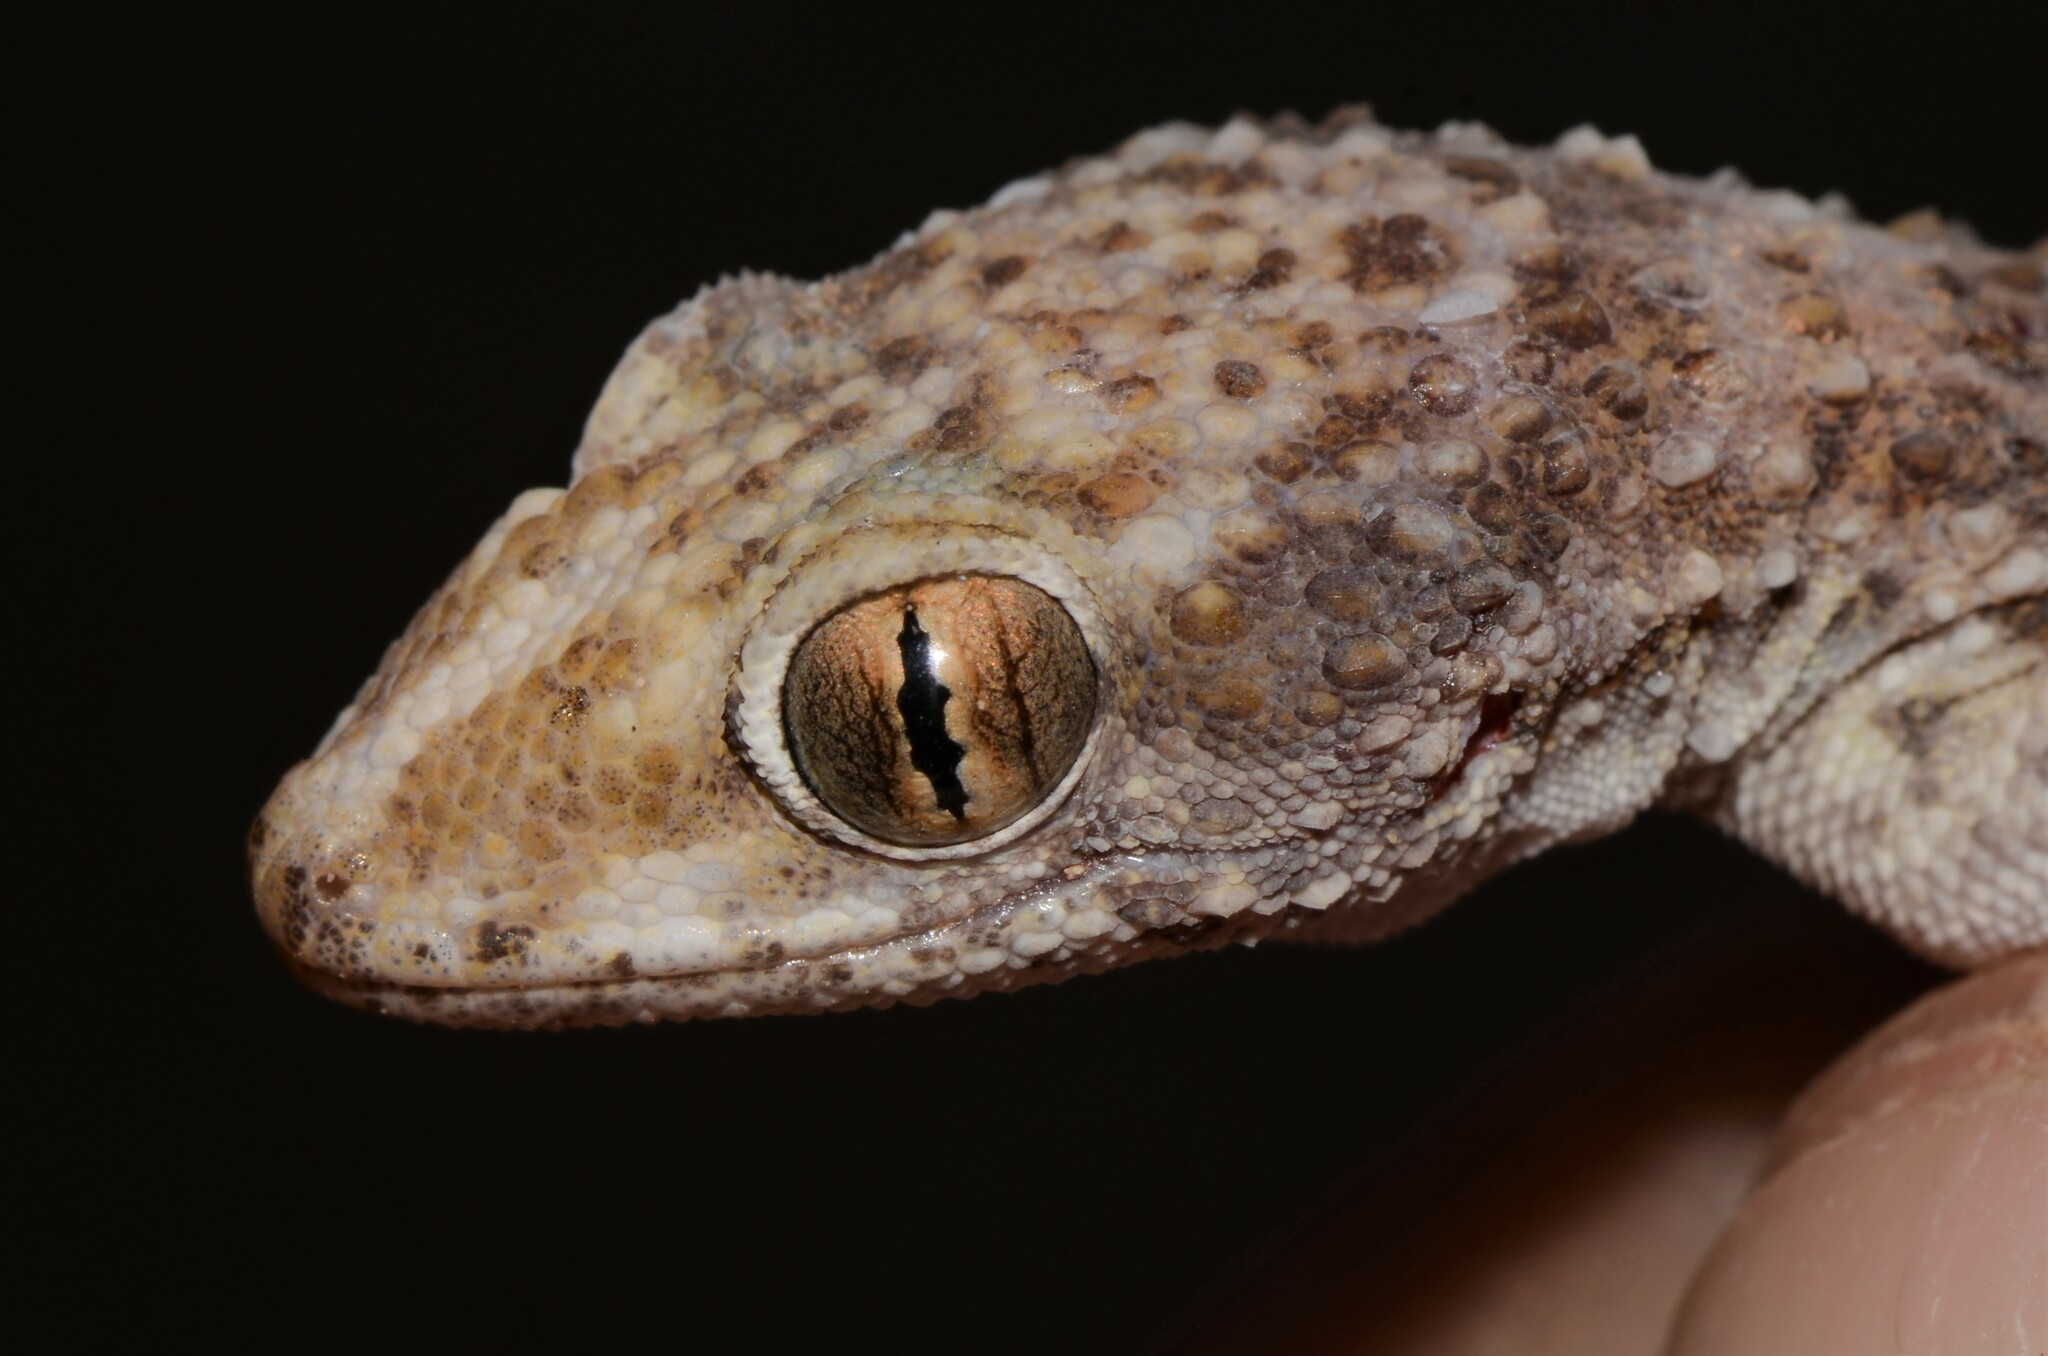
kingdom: Animalia
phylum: Chordata
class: Squamata
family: Gekkonidae
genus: Bunopus
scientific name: Bunopus tuberculatus
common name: Southern tuberculated gecko
